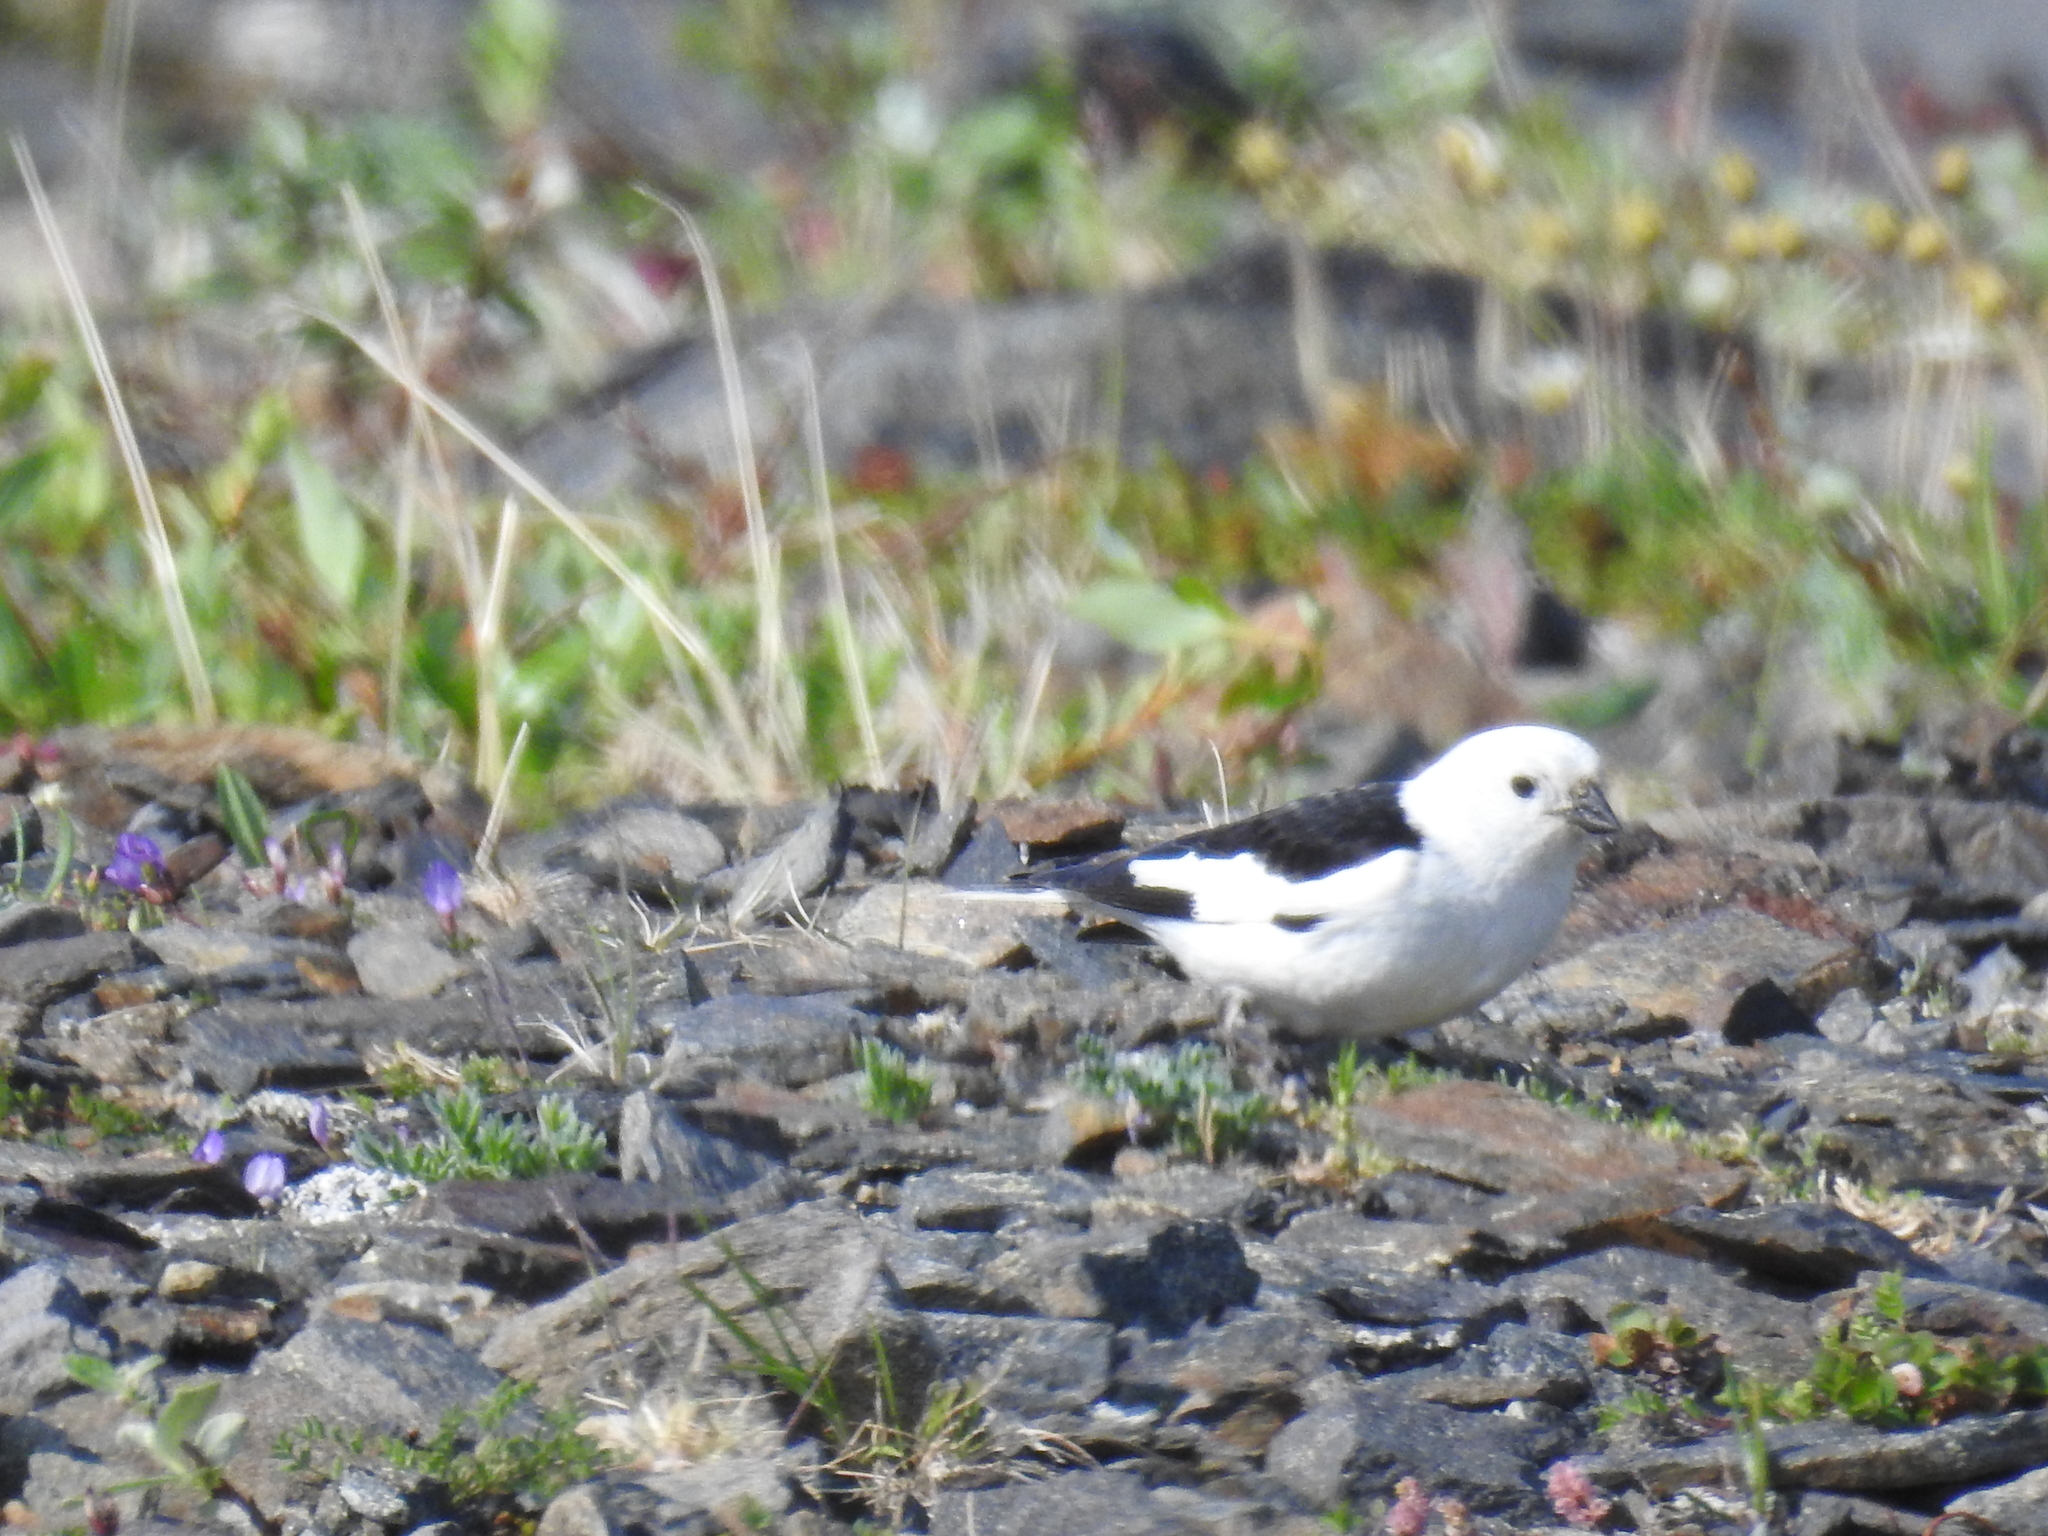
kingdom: Animalia
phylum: Chordata
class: Aves
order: Passeriformes
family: Calcariidae
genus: Plectrophenax
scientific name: Plectrophenax nivalis
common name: Snow bunting
